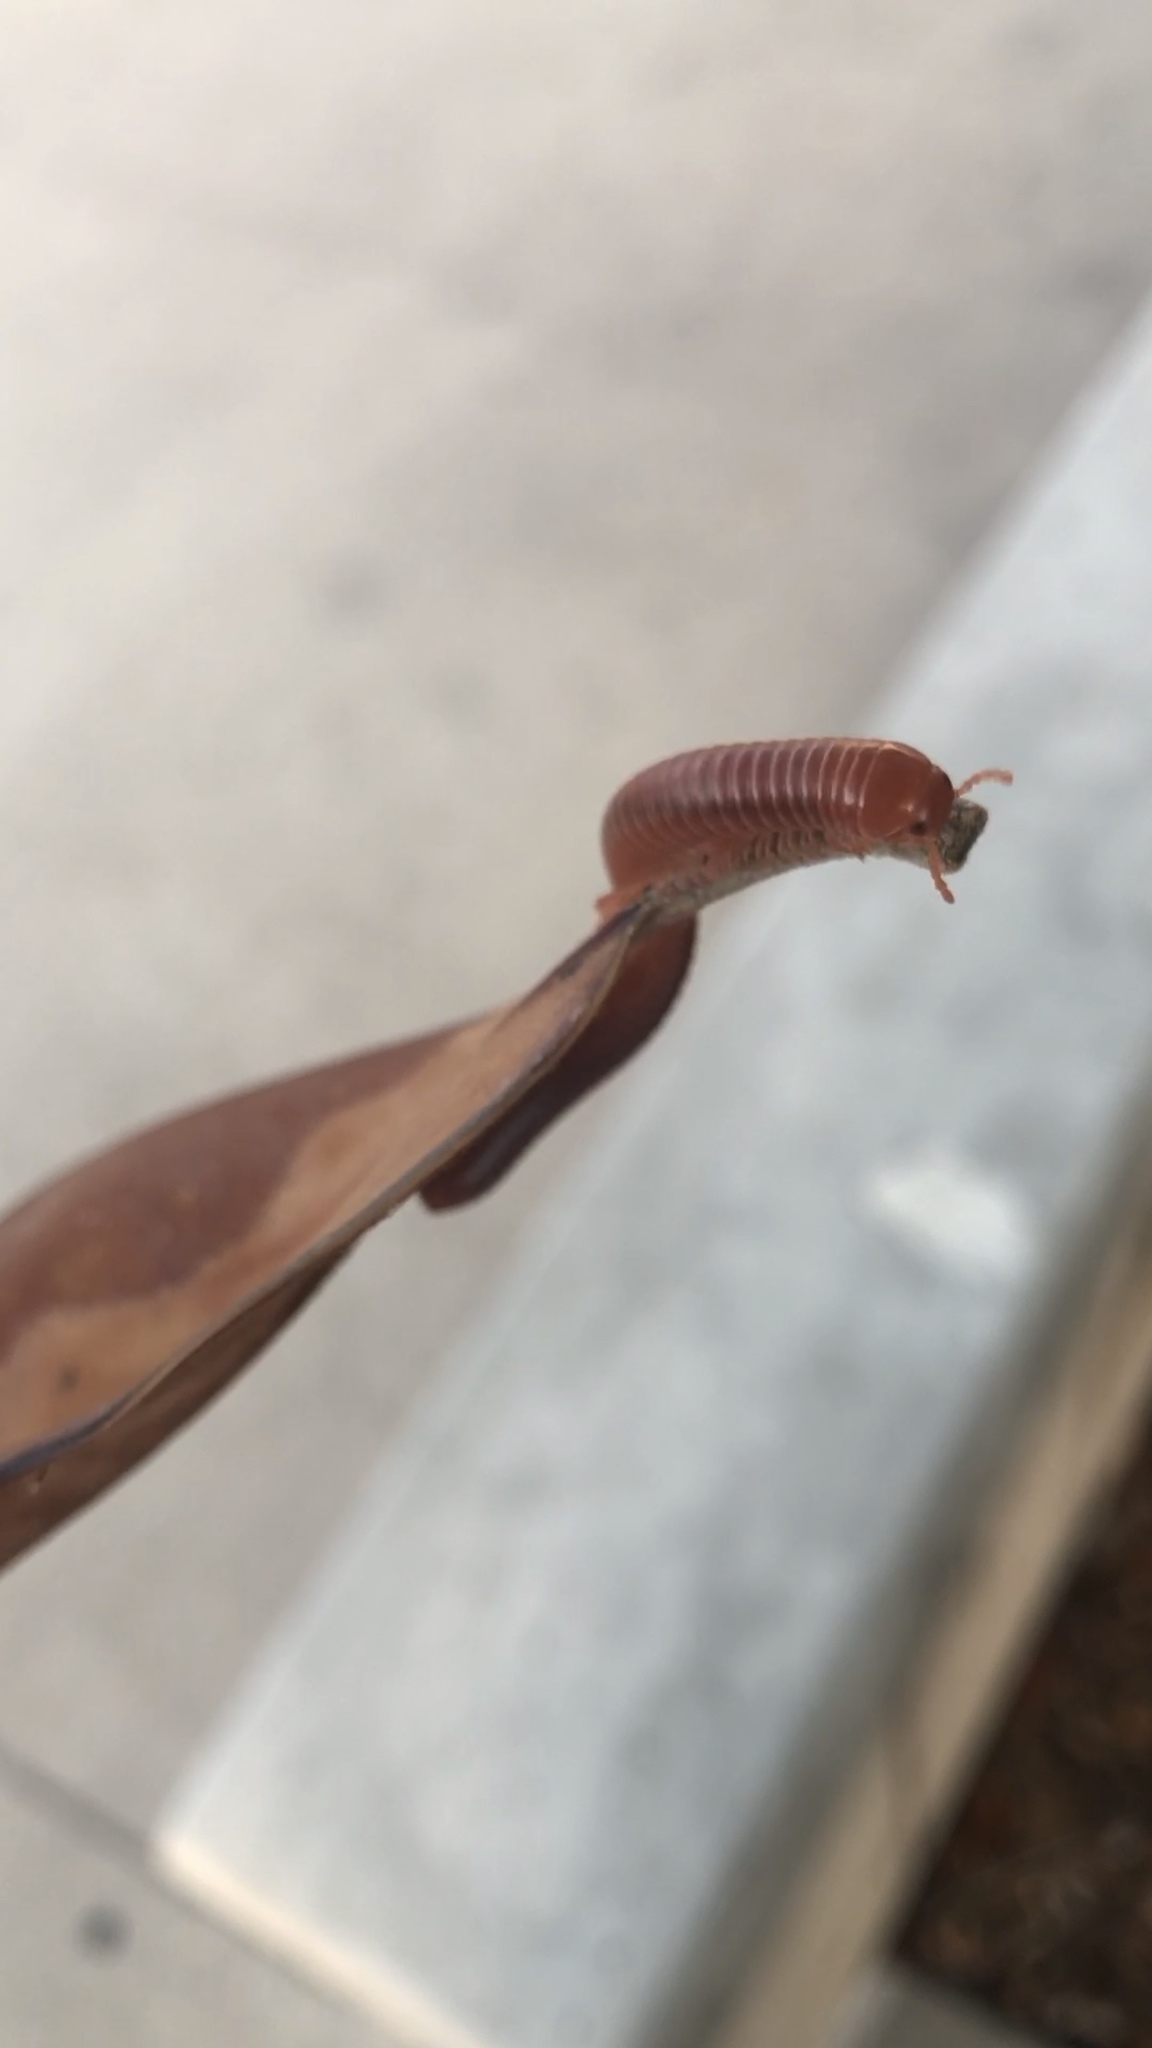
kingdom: Animalia
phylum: Arthropoda
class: Diplopoda
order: Spirobolida
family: Pachybolidae
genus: Trigoniulus
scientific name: Trigoniulus corallinus
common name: Millipede
